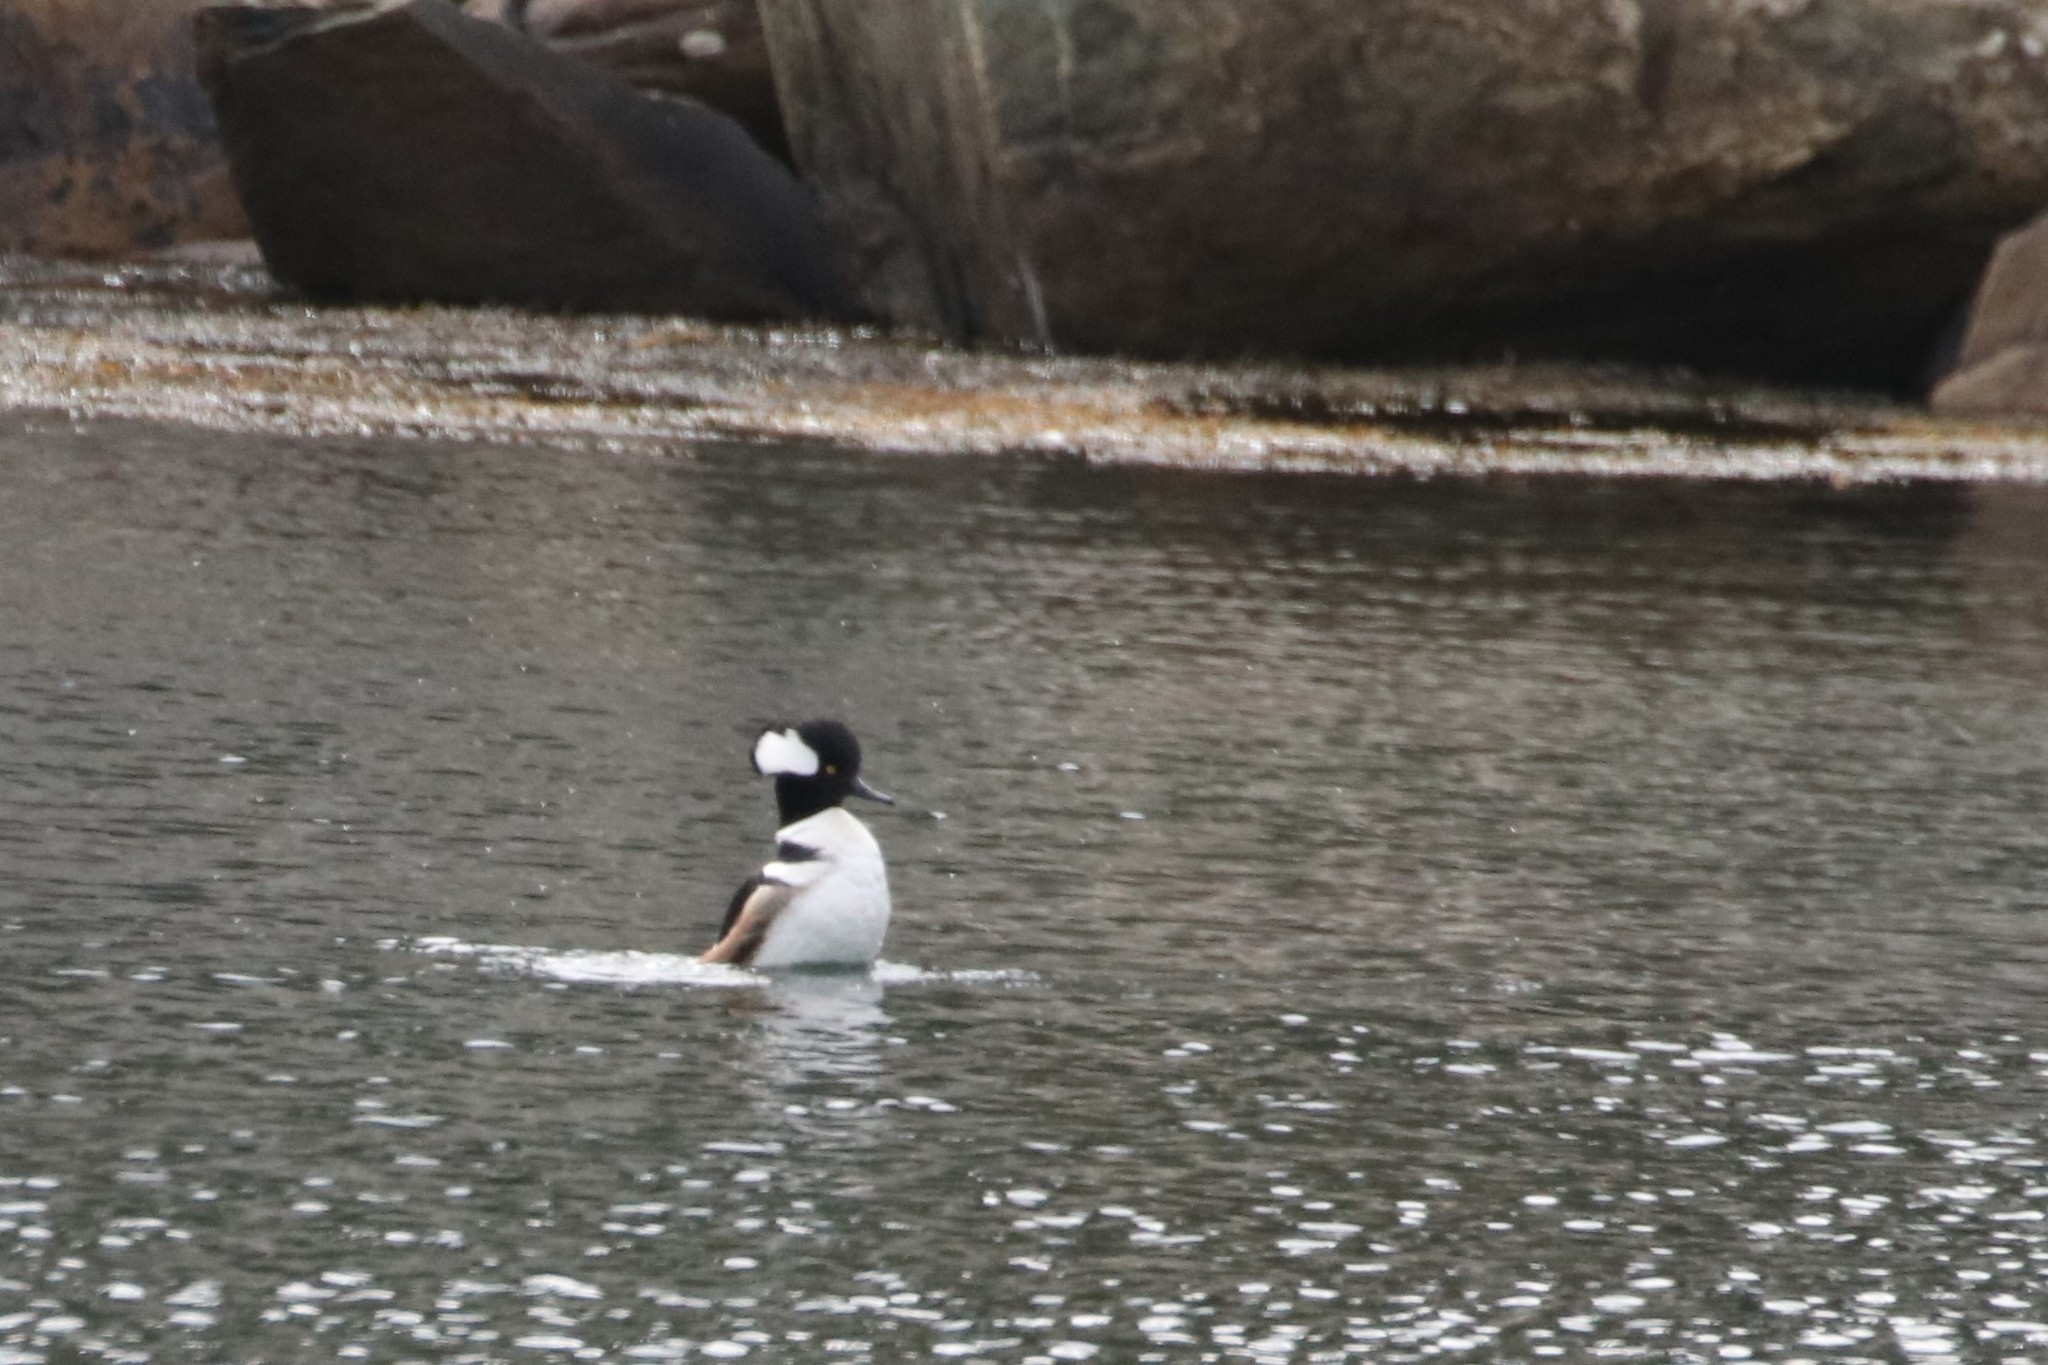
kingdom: Animalia
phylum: Chordata
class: Aves
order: Anseriformes
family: Anatidae
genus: Lophodytes
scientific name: Lophodytes cucullatus
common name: Hooded merganser
